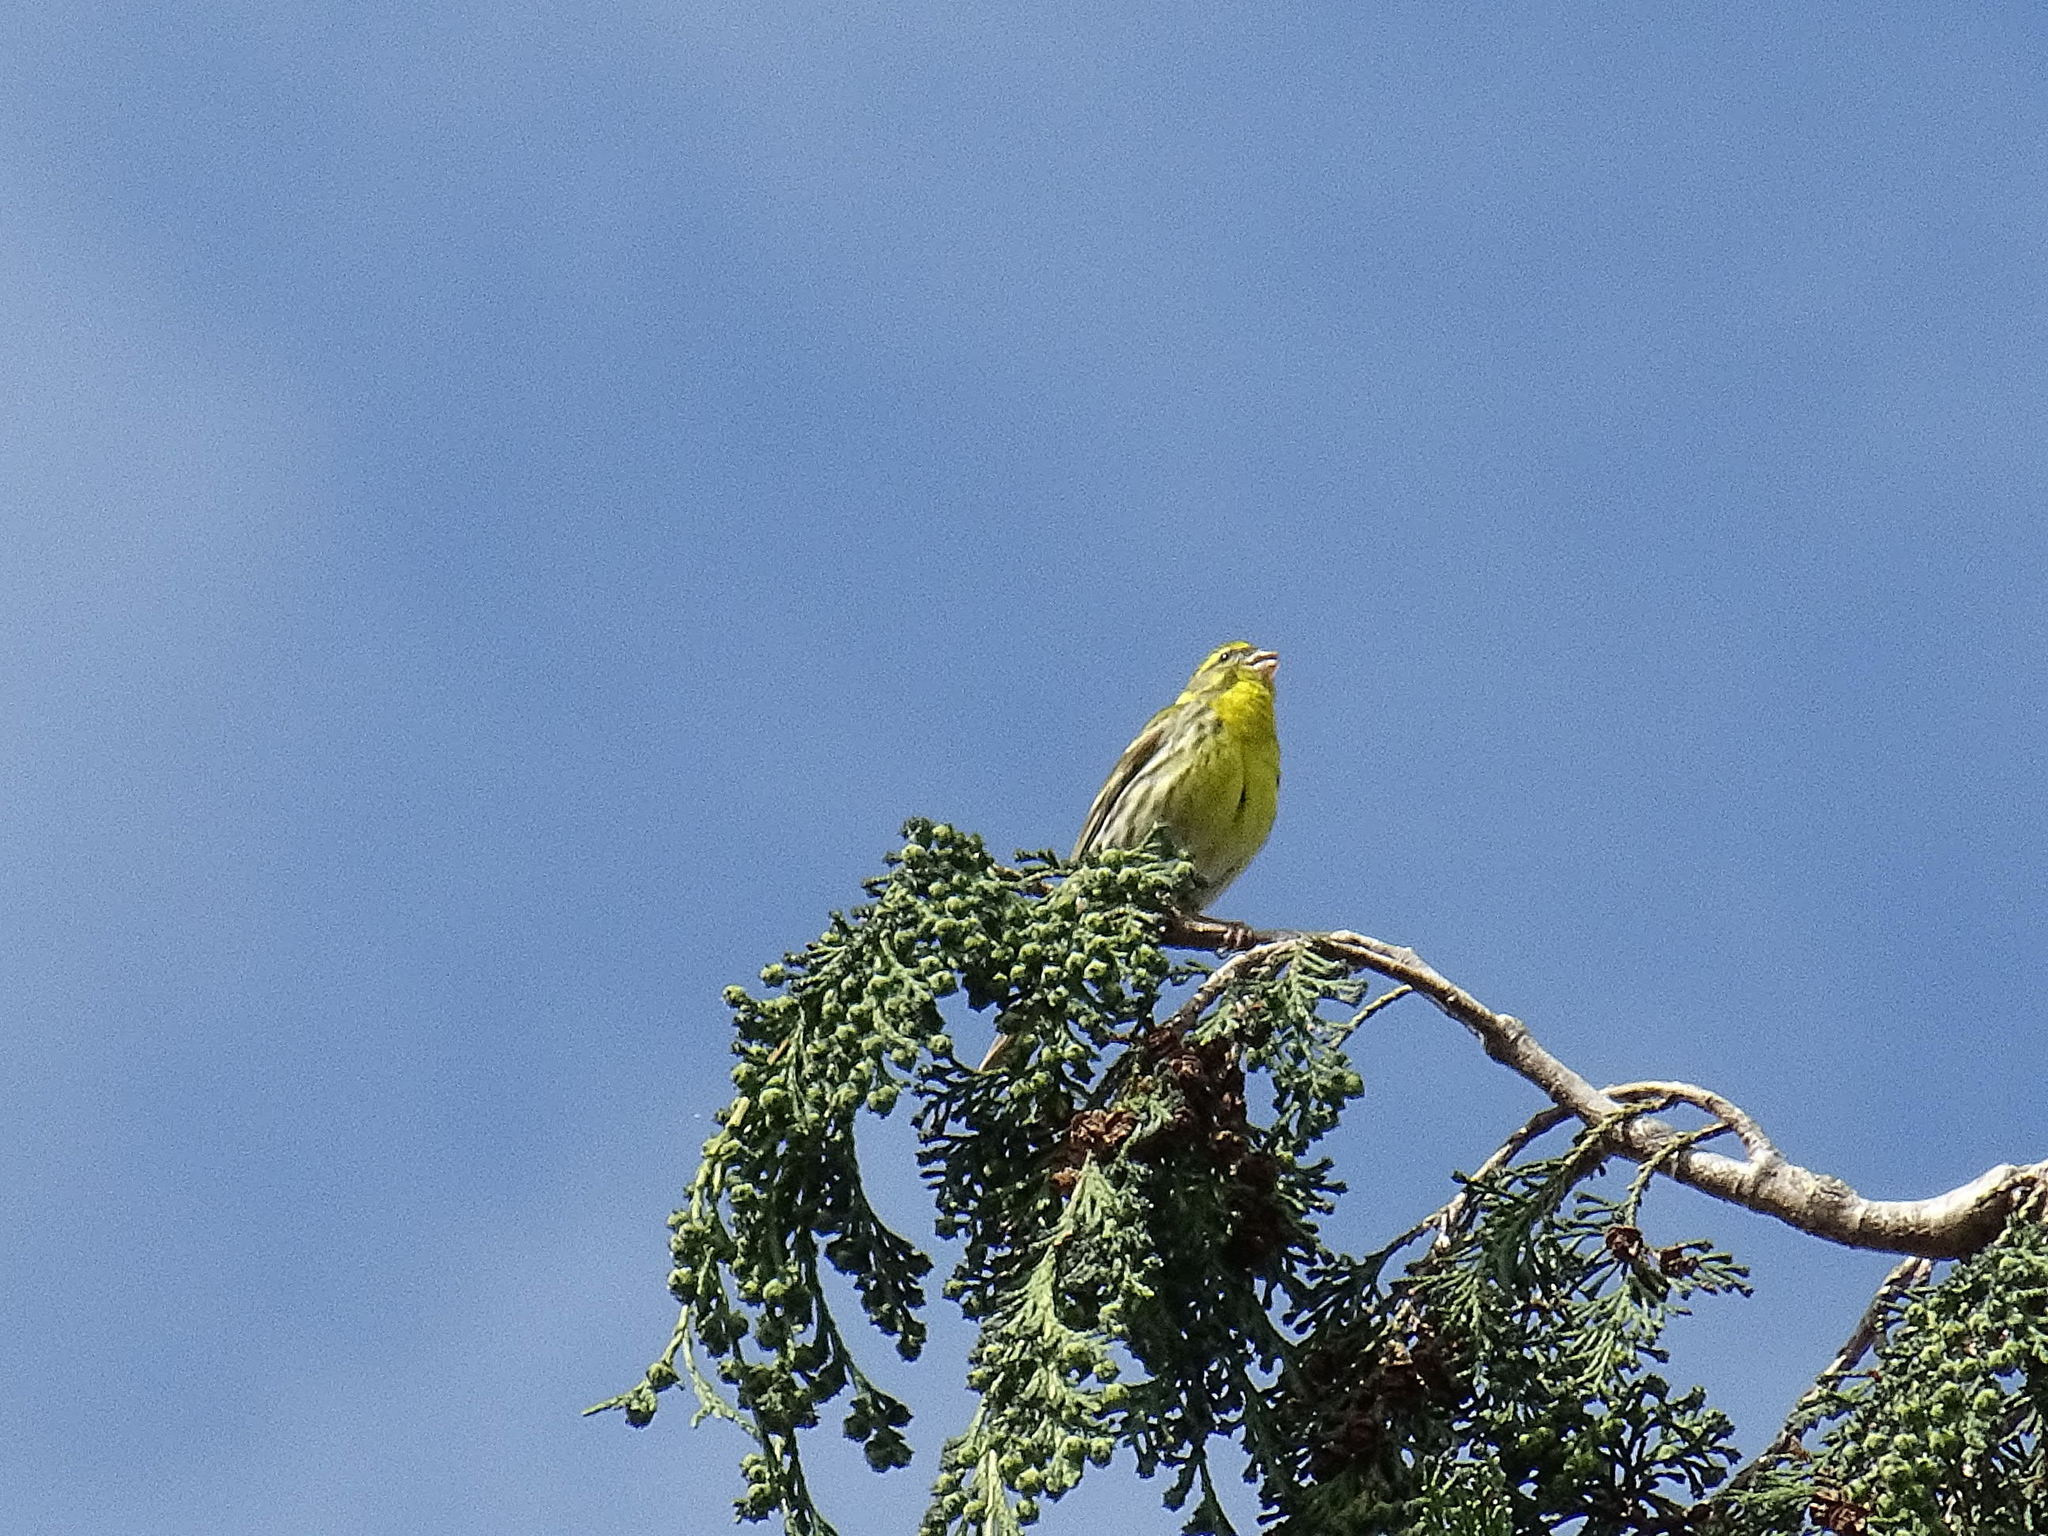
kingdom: Animalia
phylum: Chordata
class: Aves
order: Passeriformes
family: Fringillidae
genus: Serinus
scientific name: Serinus serinus
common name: European serin
